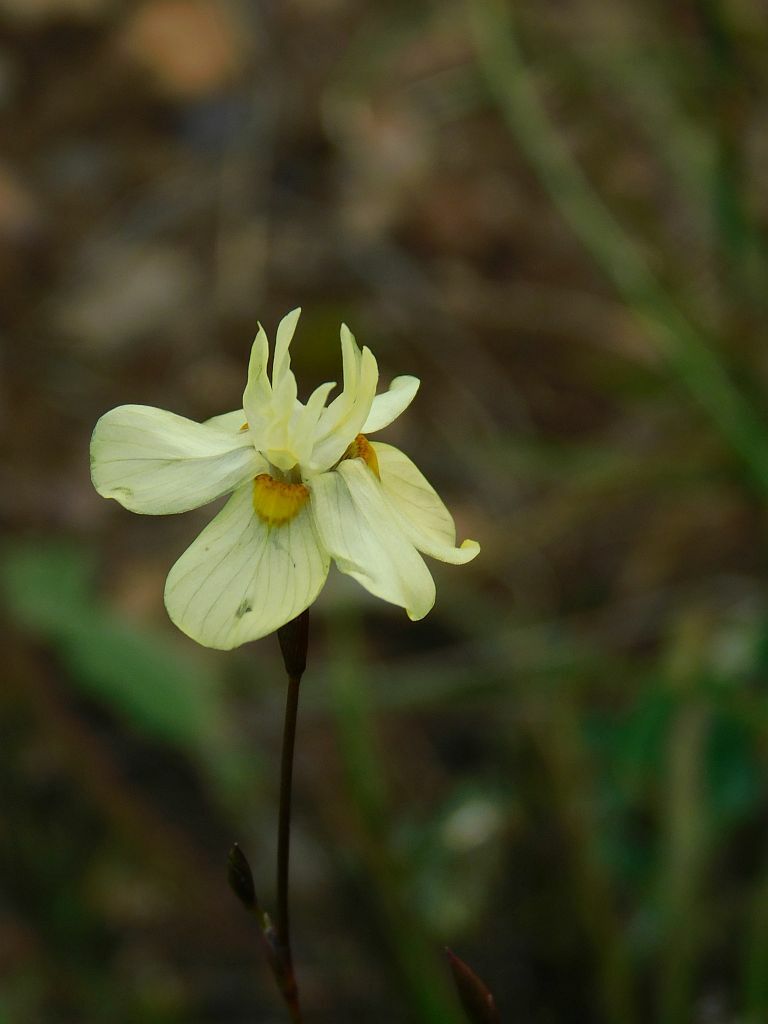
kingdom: Plantae
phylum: Tracheophyta
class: Liliopsida
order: Asparagales
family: Iridaceae
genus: Moraea
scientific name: Moraea gawleri
